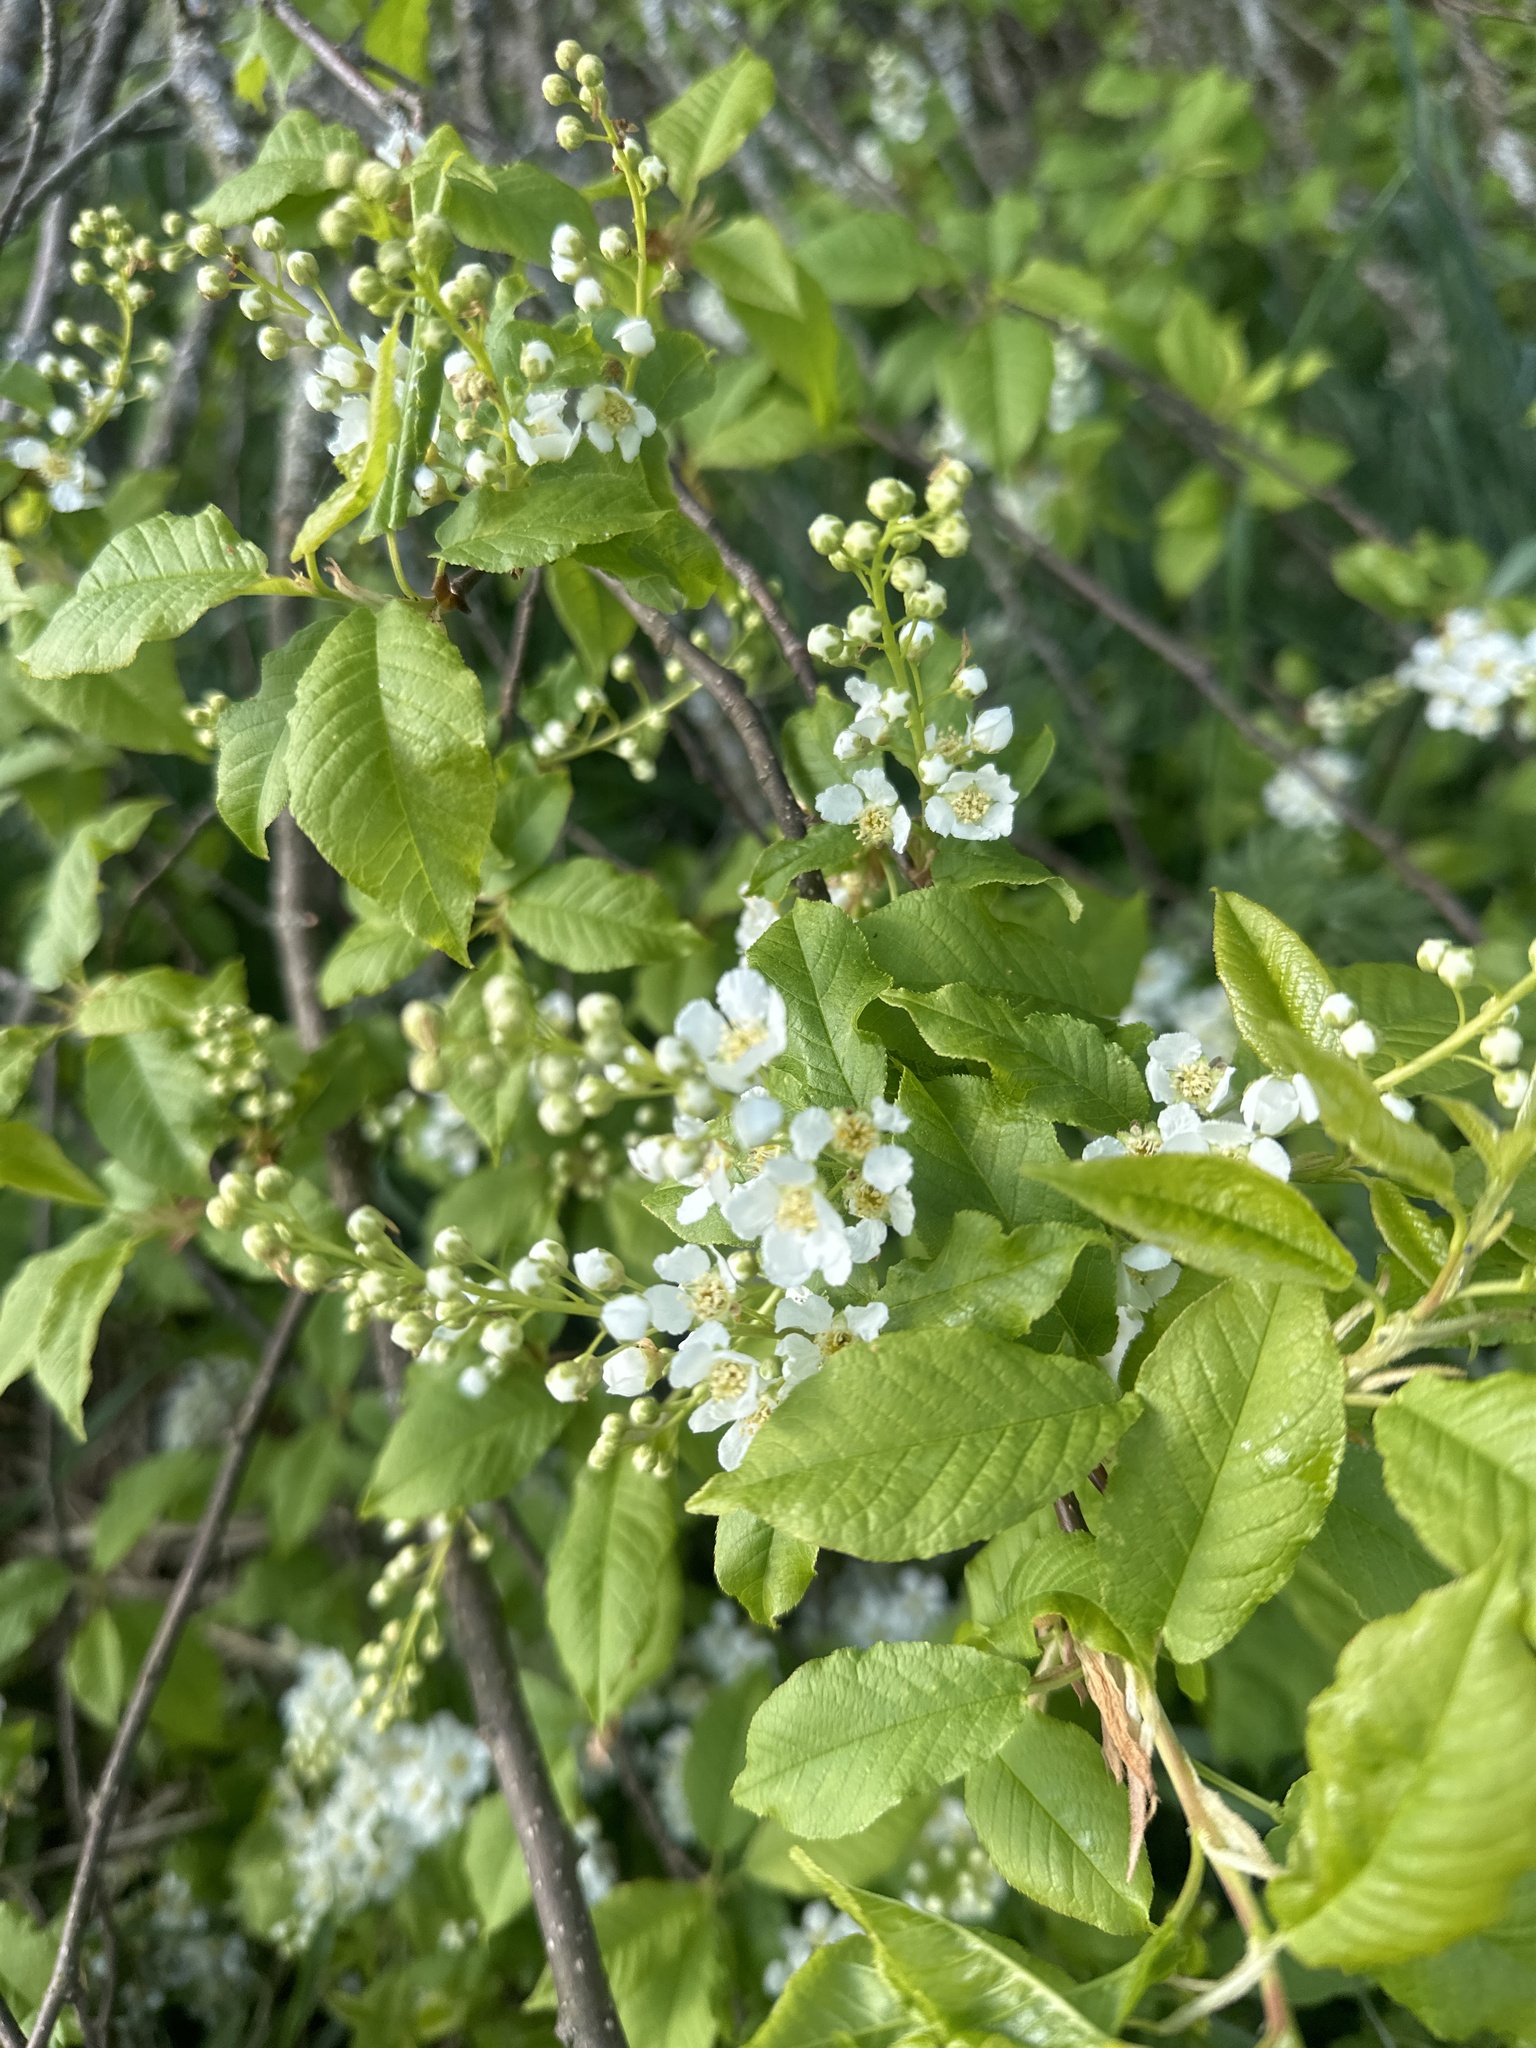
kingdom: Plantae
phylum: Tracheophyta
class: Magnoliopsida
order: Rosales
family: Rosaceae
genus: Prunus
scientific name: Prunus padus
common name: Bird cherry
